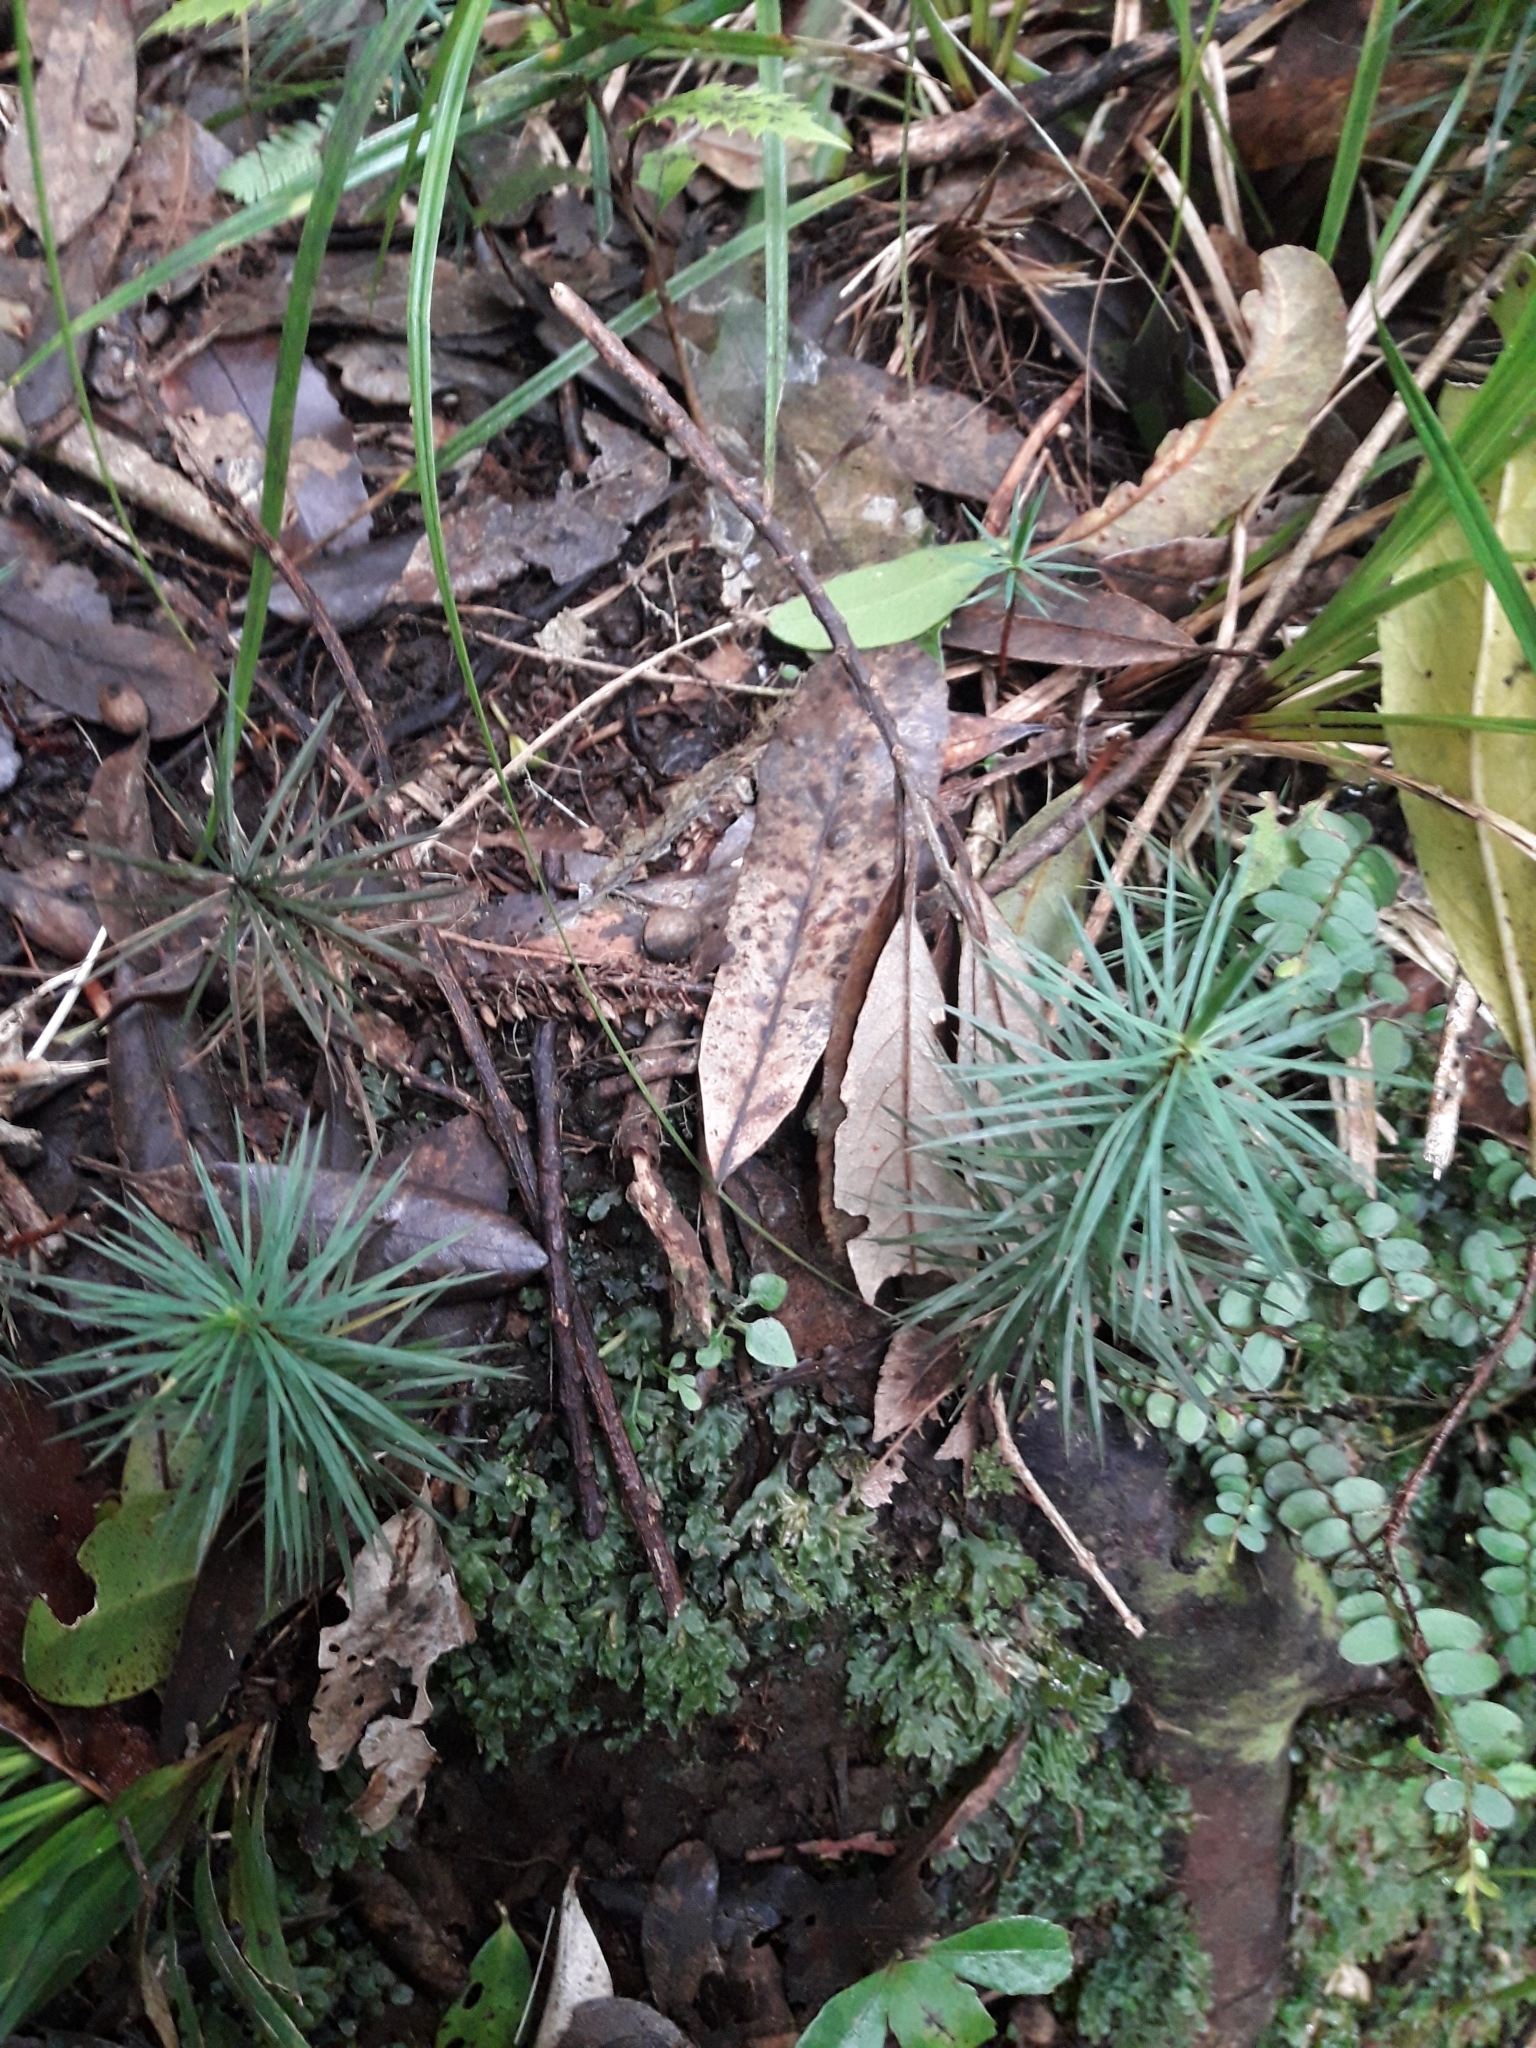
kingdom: Plantae
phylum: Bryophyta
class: Polytrichopsida
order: Polytrichales
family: Polytrichaceae
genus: Dawsonia
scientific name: Dawsonia superba
